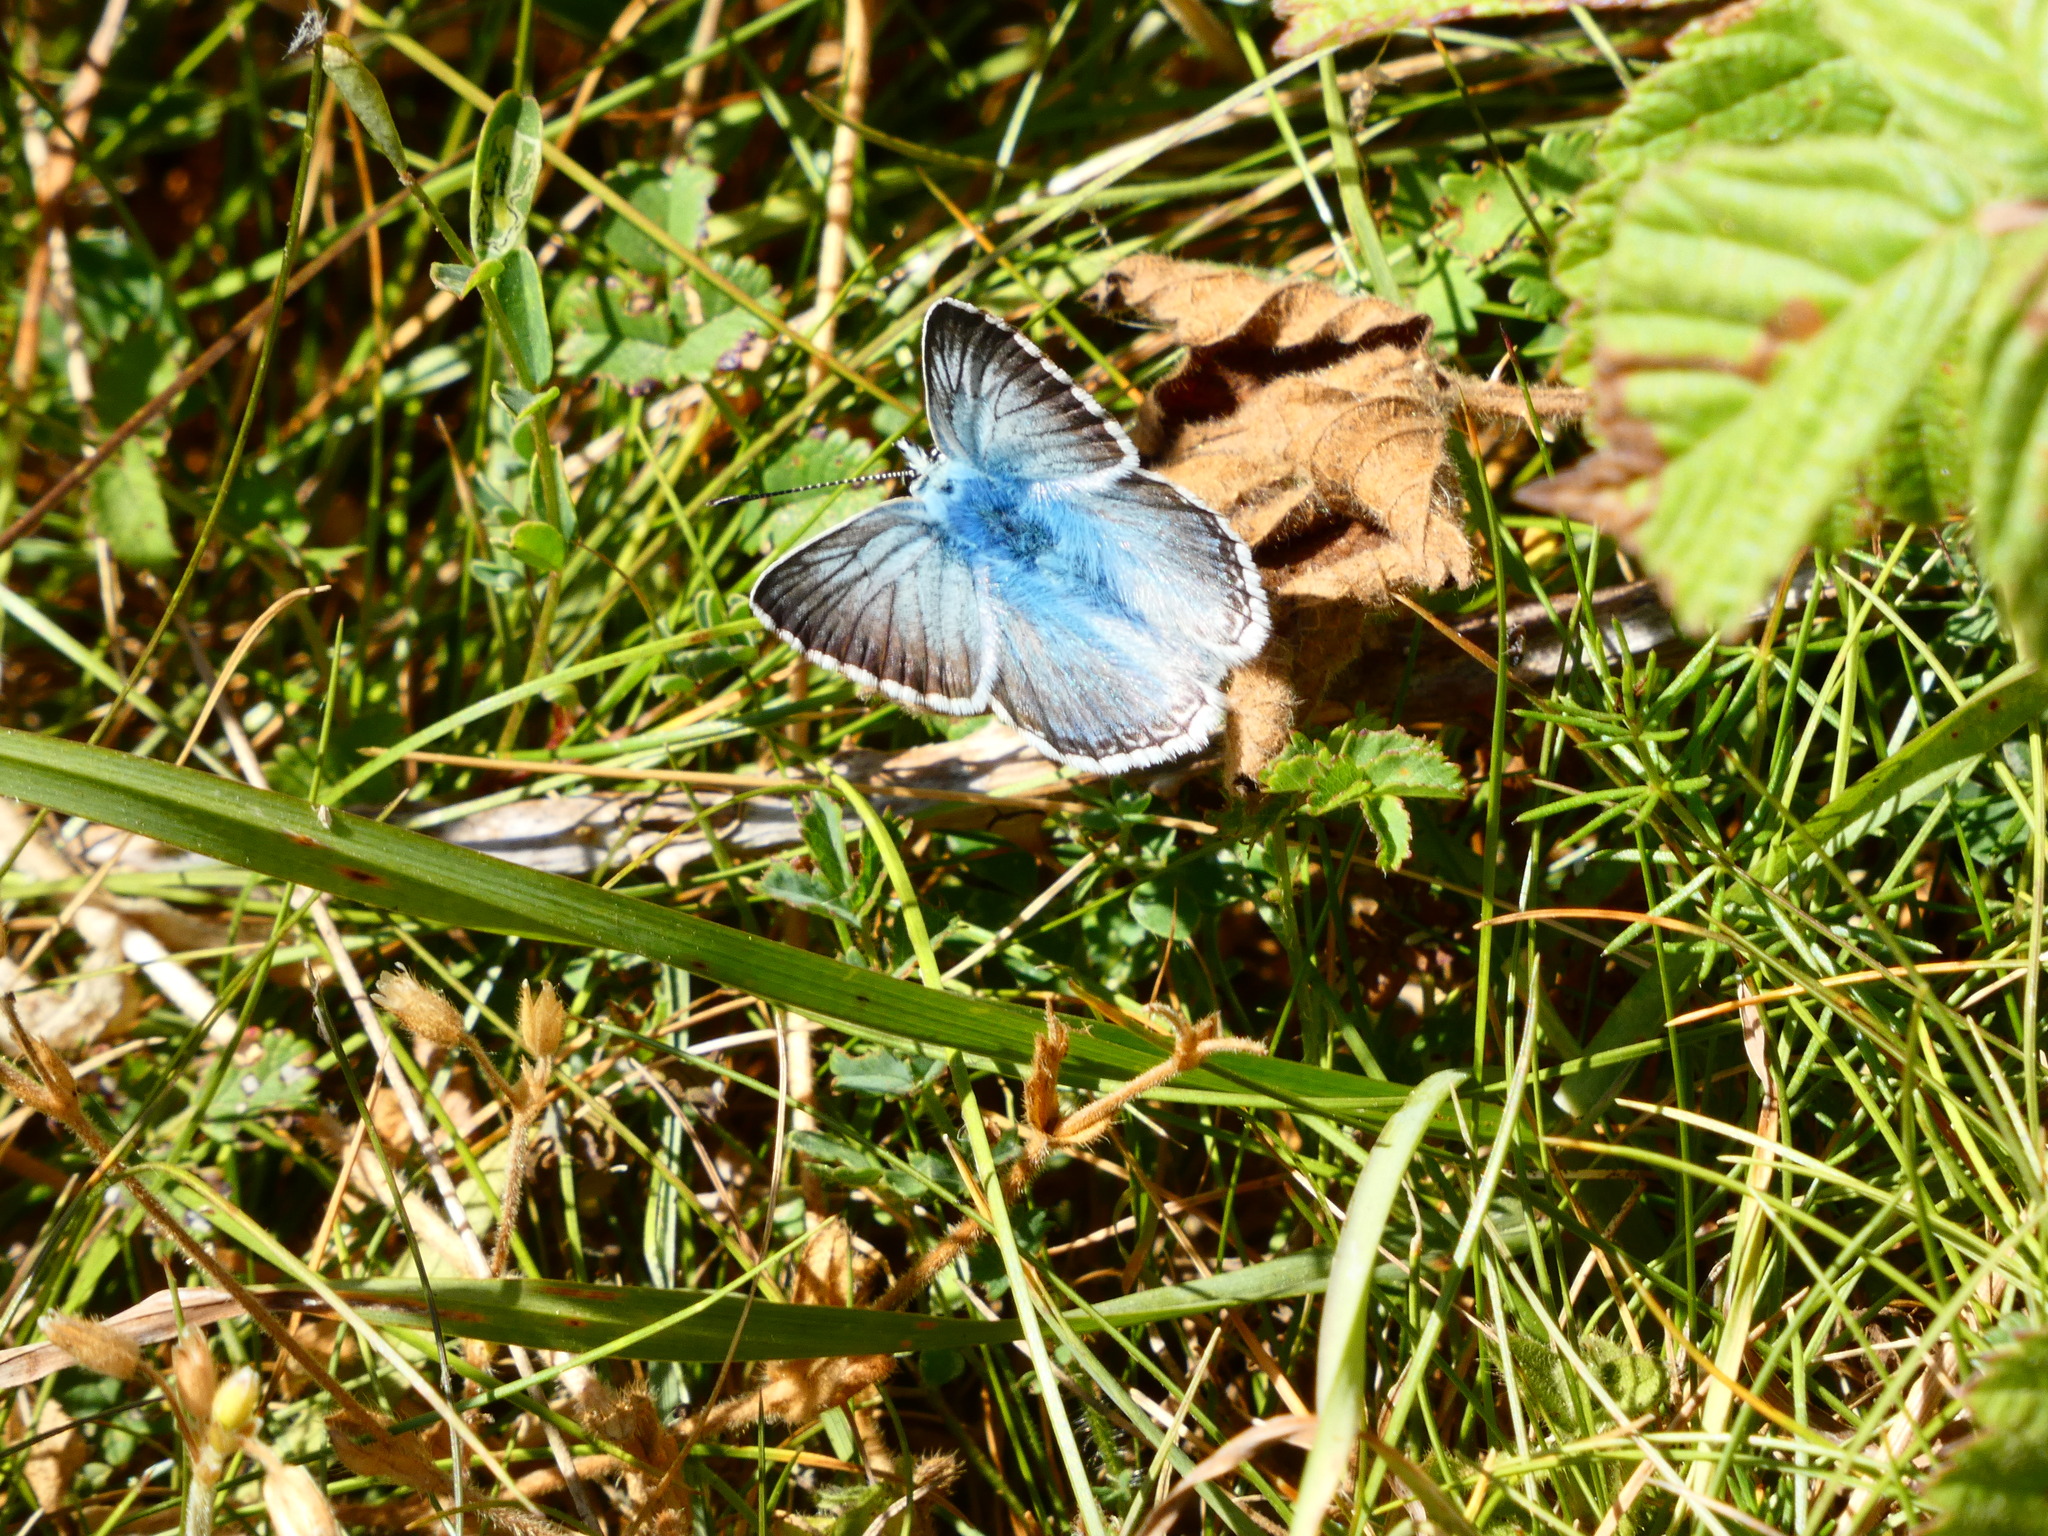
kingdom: Animalia
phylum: Arthropoda
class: Insecta
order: Lepidoptera
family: Lycaenidae
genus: Lysandra
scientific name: Lysandra coridon
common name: Chalkhill blue
